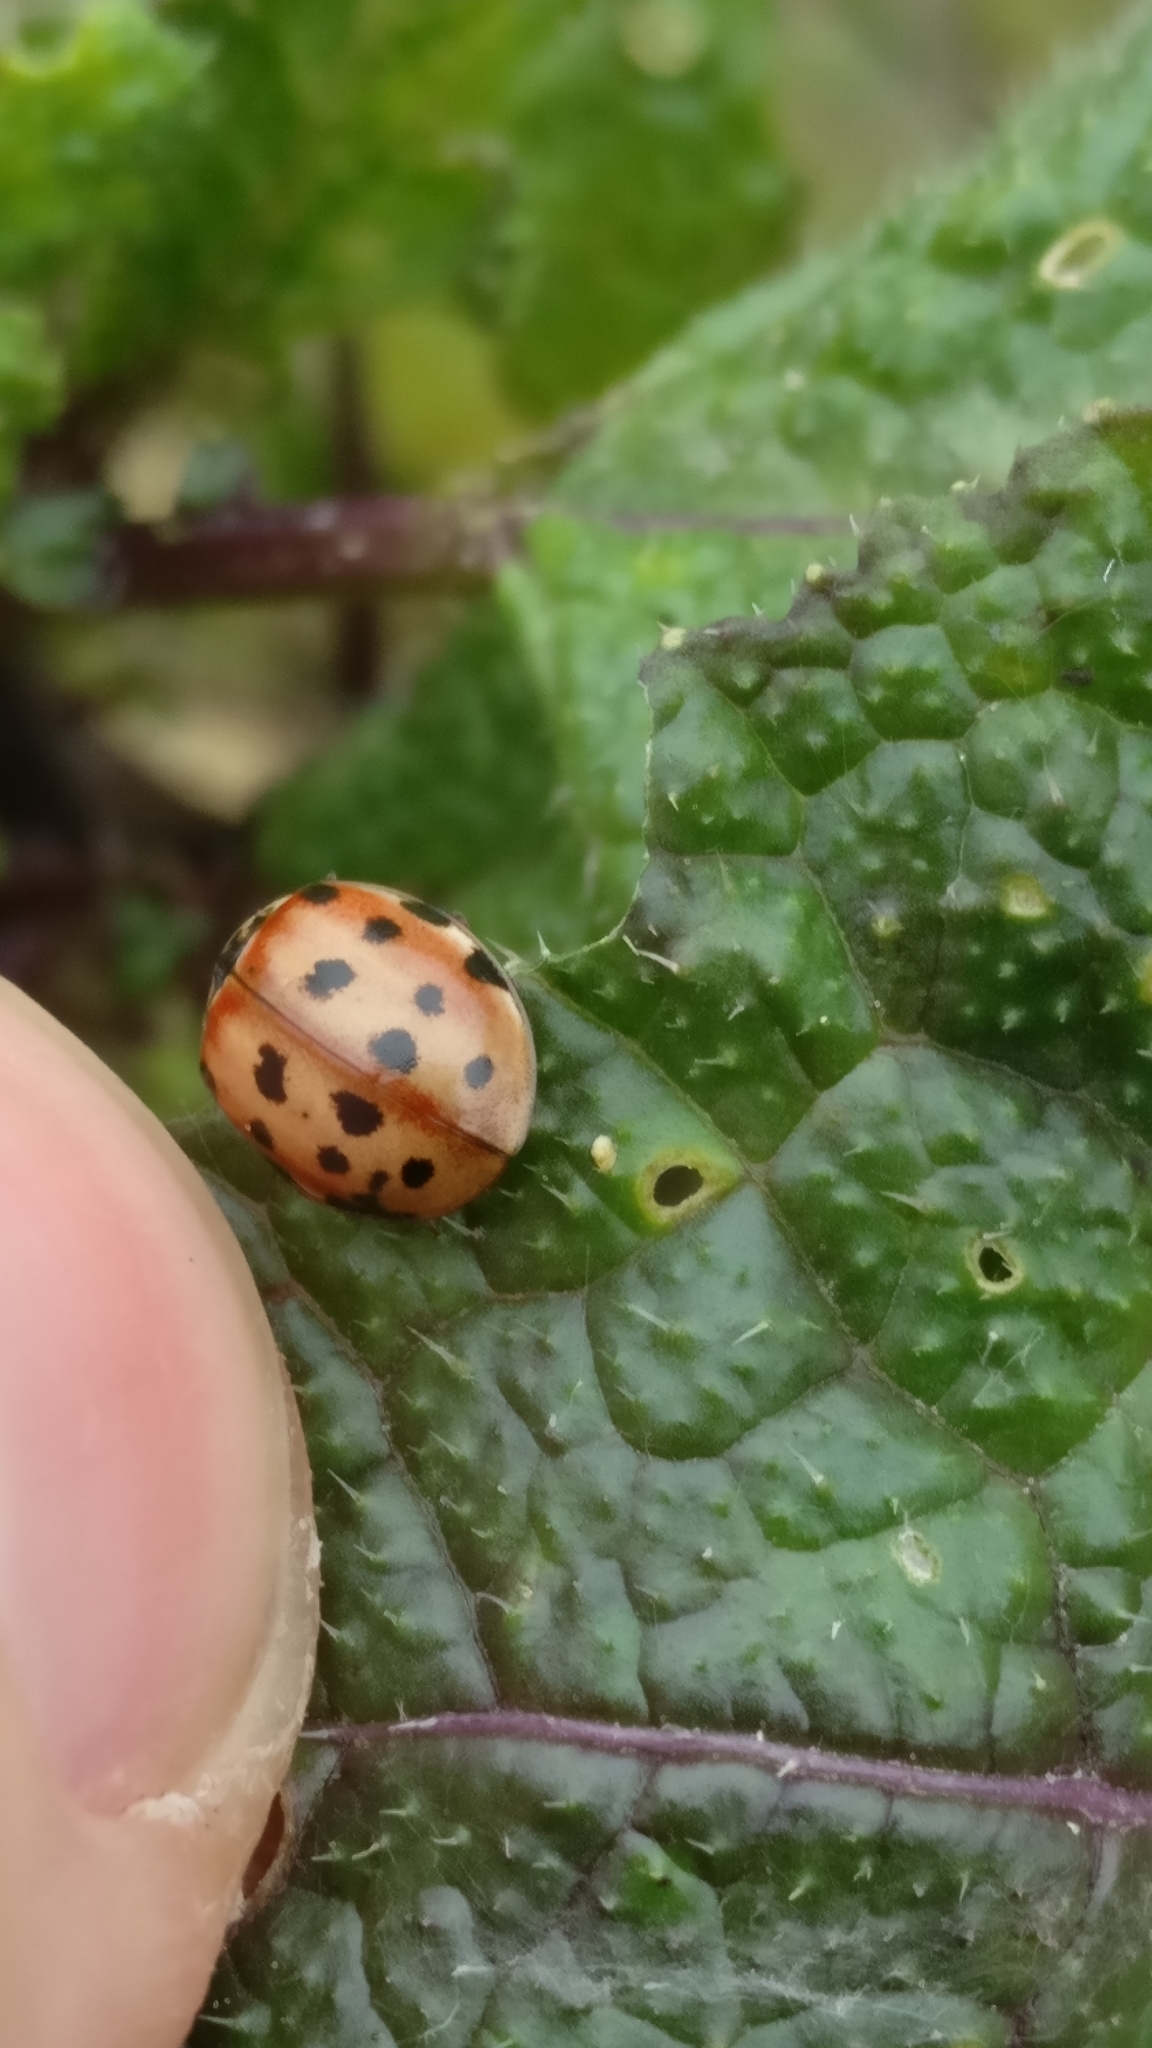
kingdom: Animalia
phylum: Arthropoda
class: Insecta
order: Coleoptera
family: Coccinellidae
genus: Harmonia
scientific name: Harmonia quadripunctata
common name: Cream-streaked ladybird
